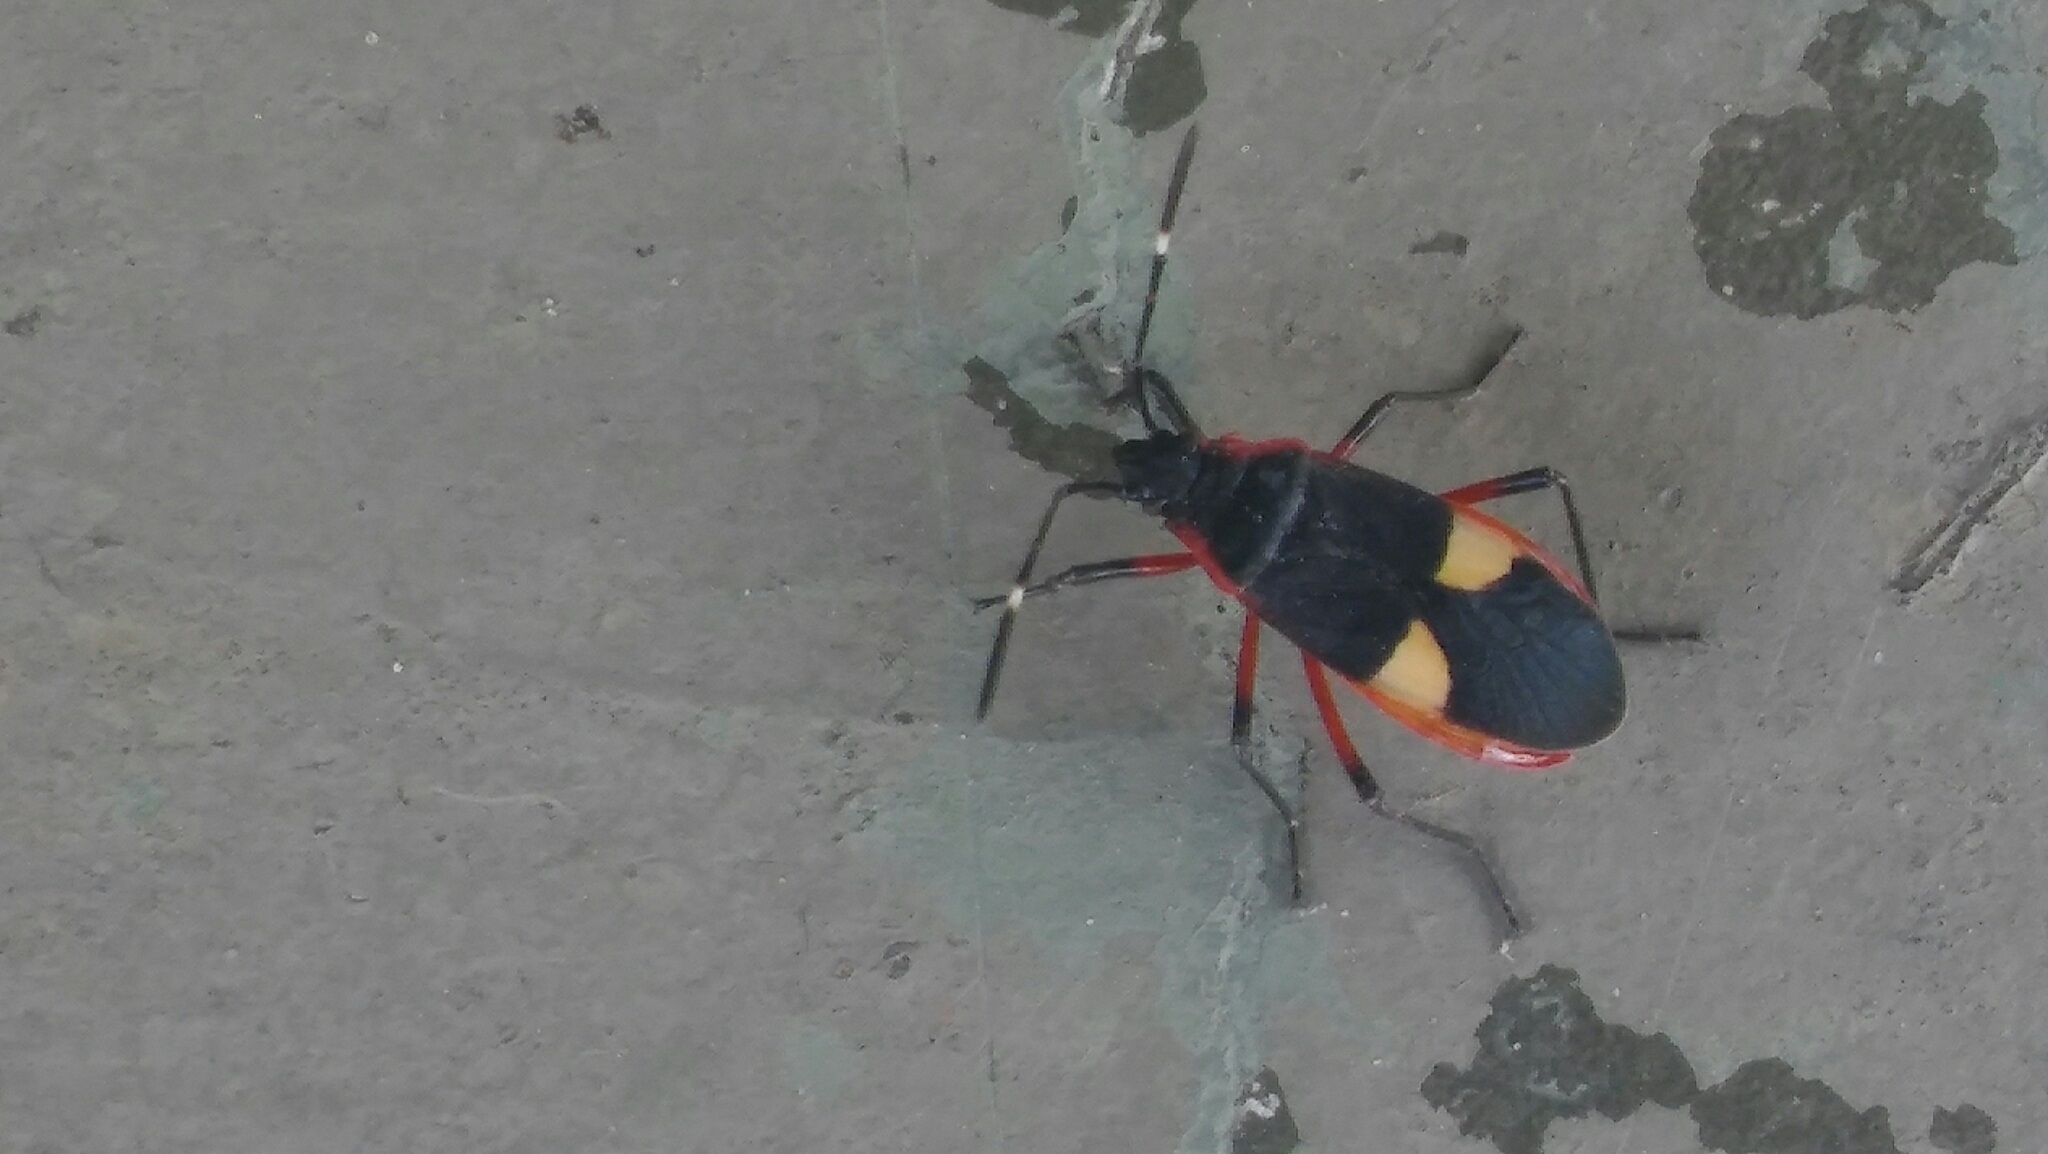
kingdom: Animalia
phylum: Arthropoda
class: Insecta
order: Hemiptera
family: Pyrrhocoridae
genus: Dysdercus
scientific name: Dysdercus albofasciatus
